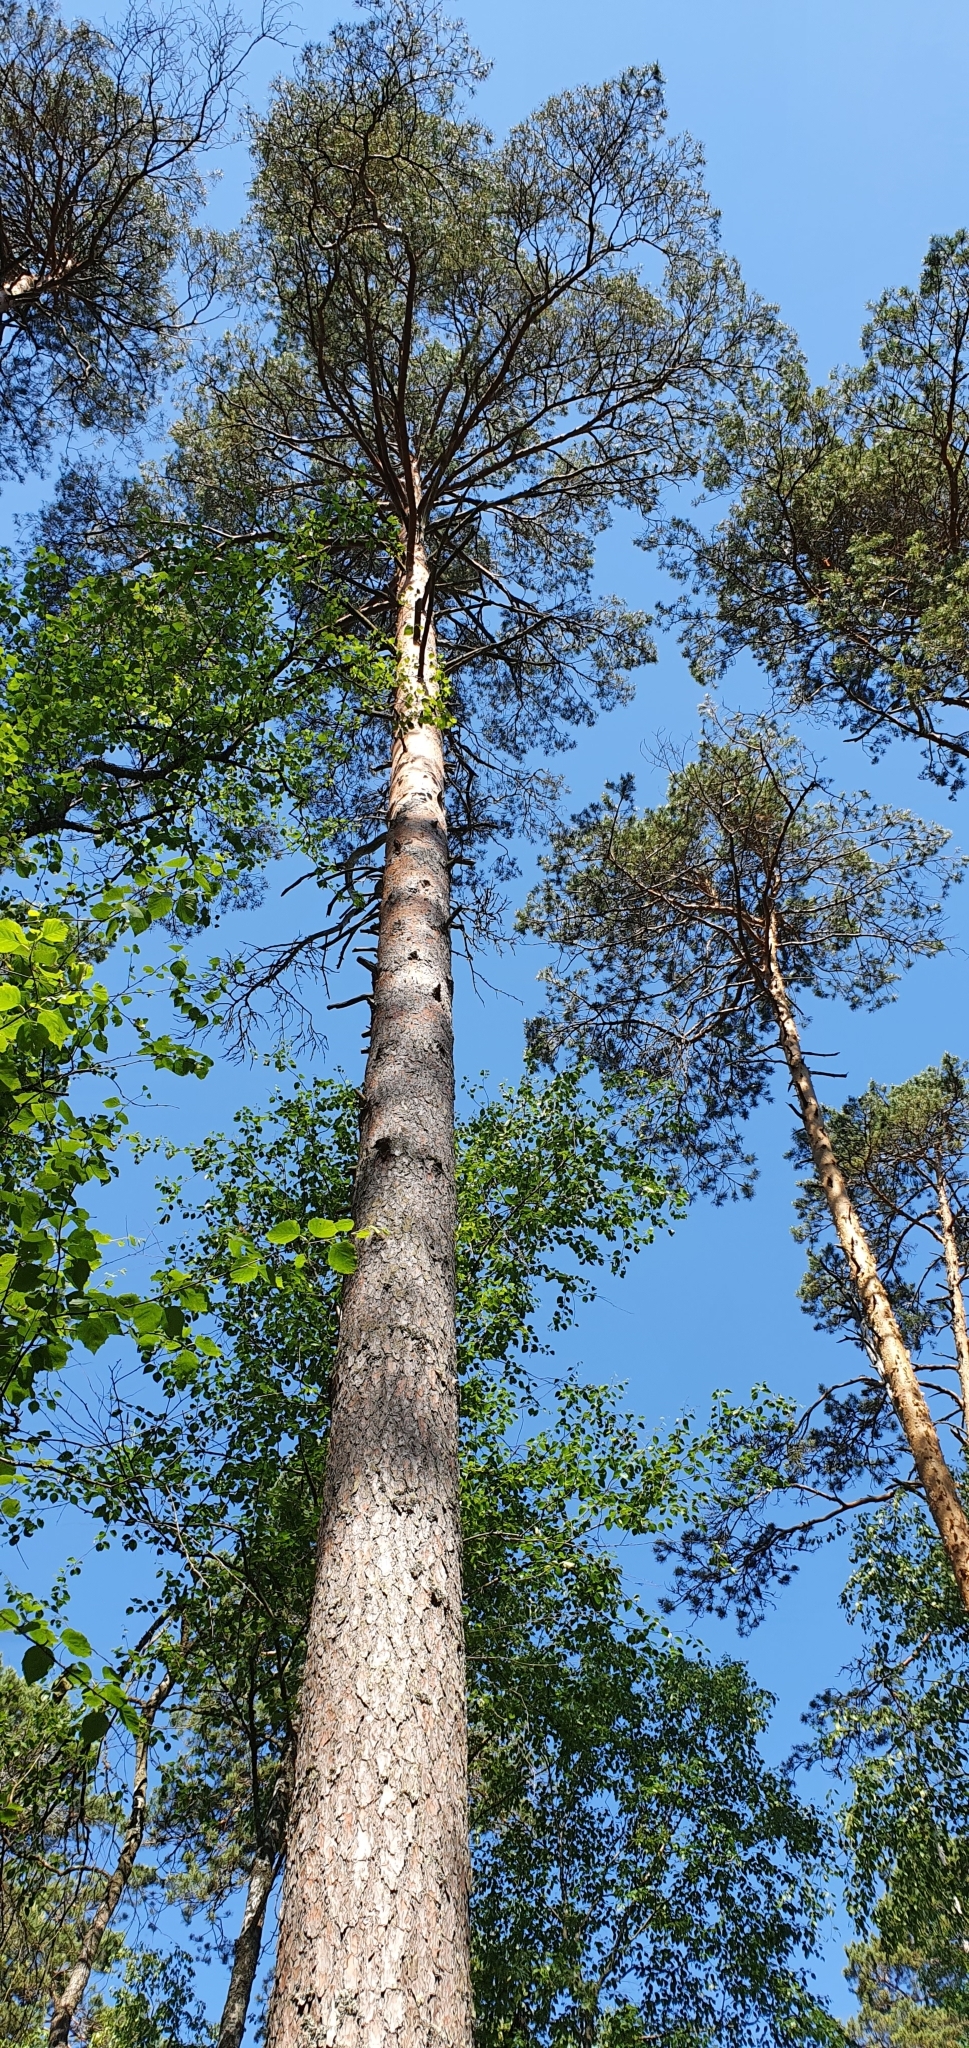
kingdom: Plantae
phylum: Tracheophyta
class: Pinopsida
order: Pinales
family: Pinaceae
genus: Pinus
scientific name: Pinus sylvestris
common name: Scots pine
